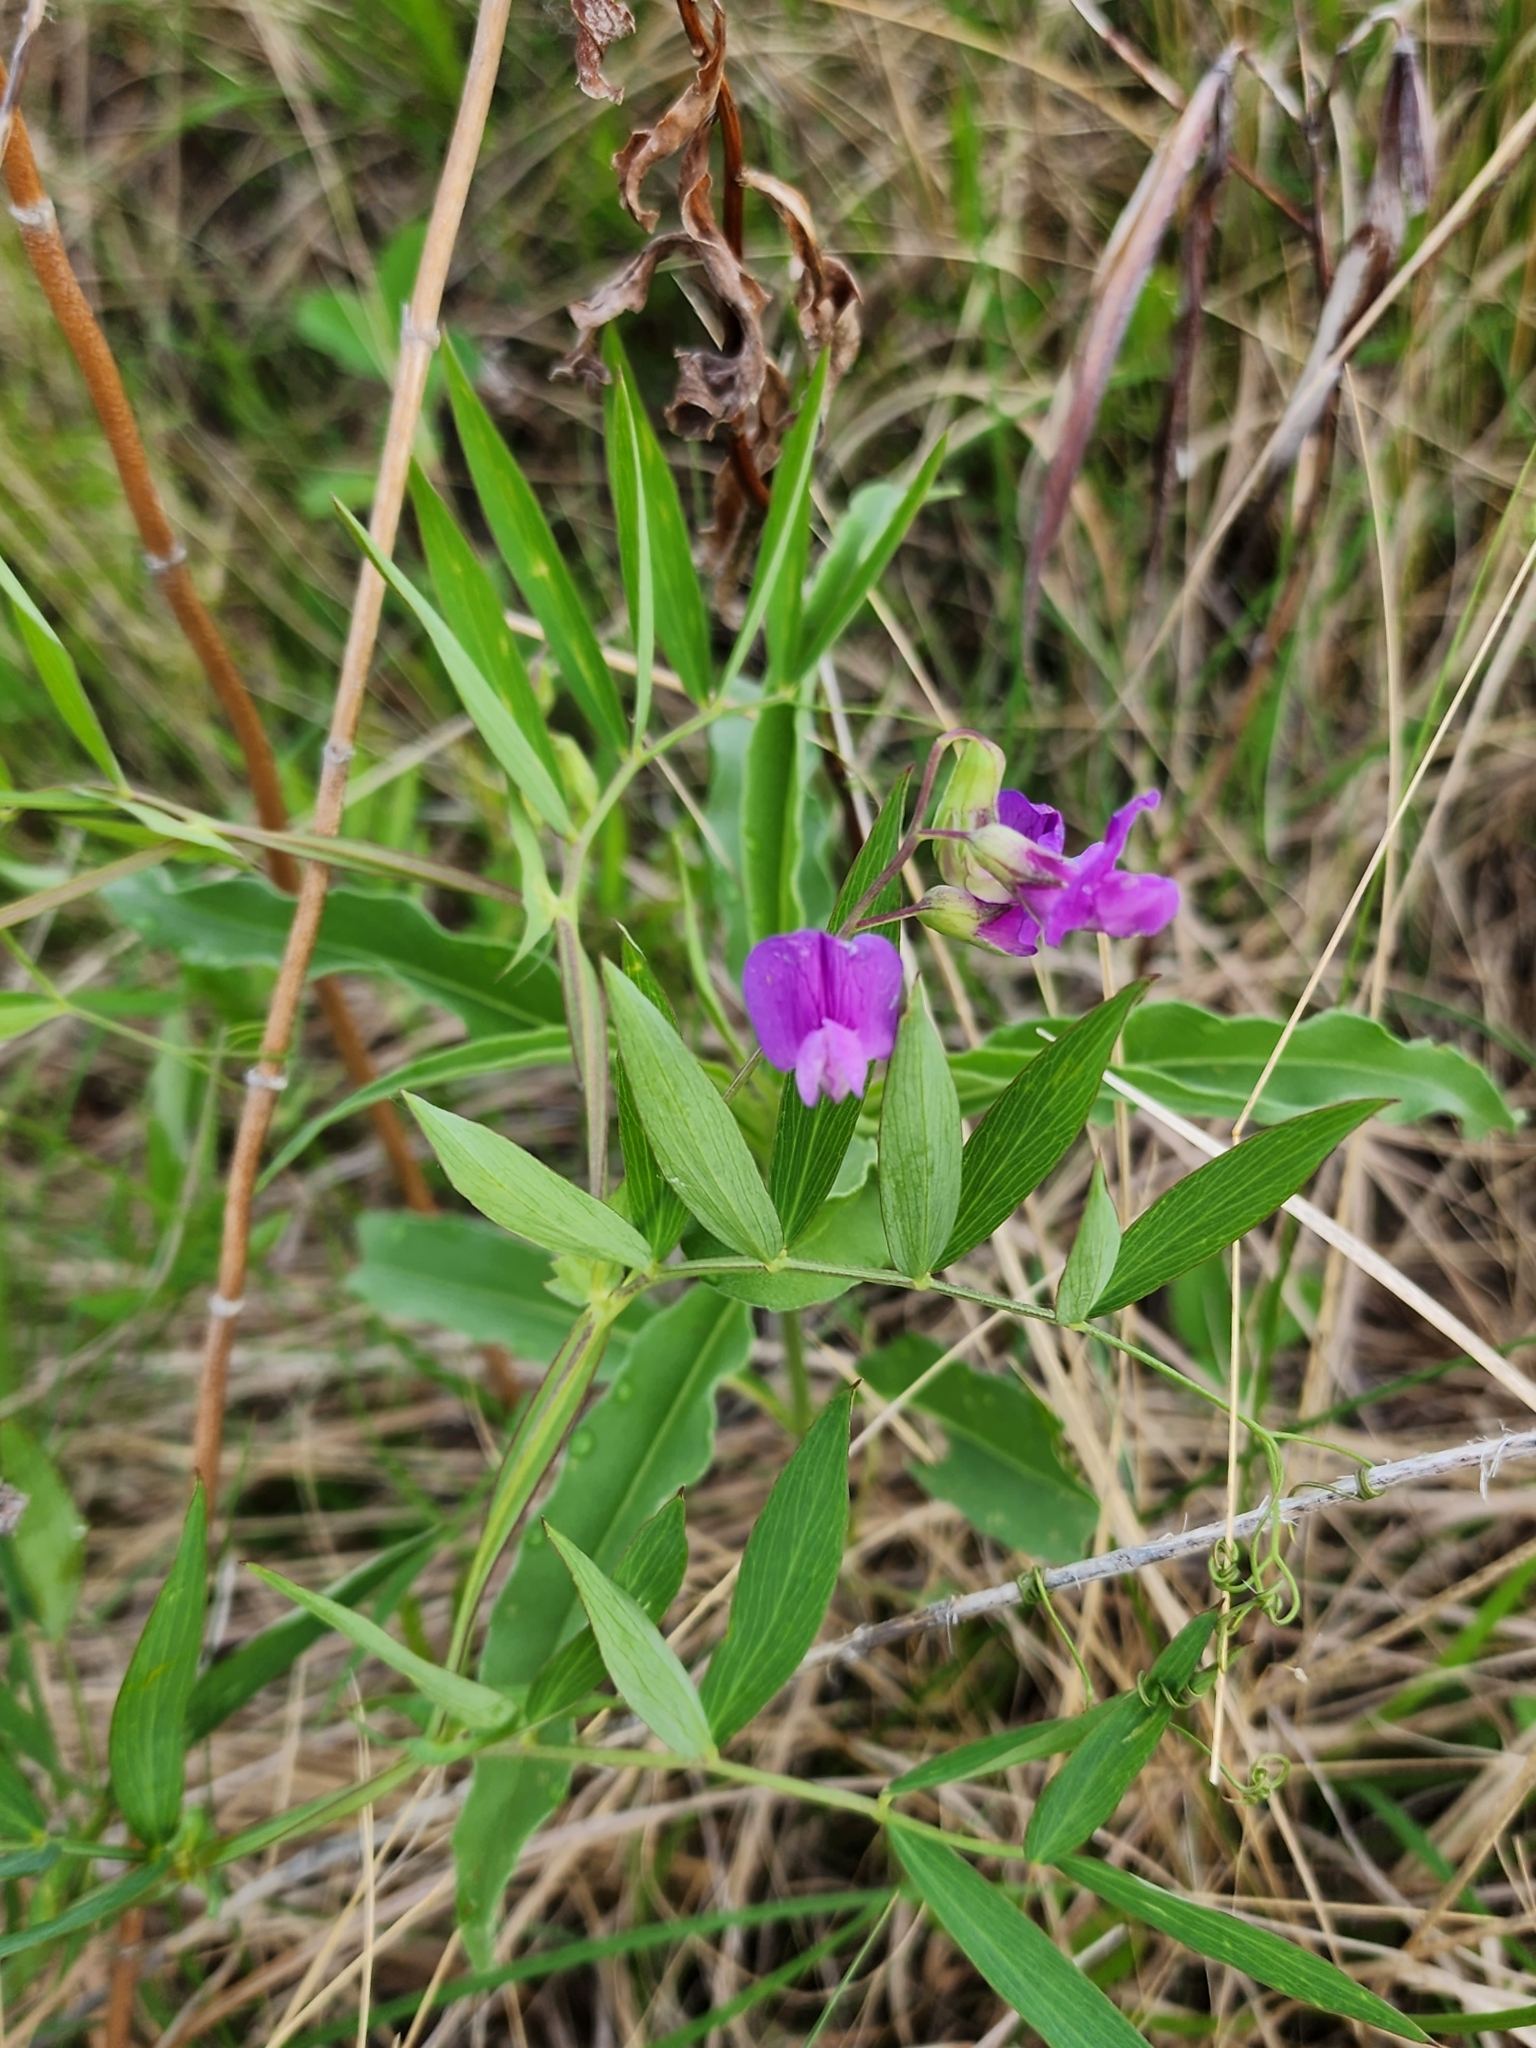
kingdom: Plantae
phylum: Tracheophyta
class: Magnoliopsida
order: Fabales
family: Fabaceae
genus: Lathyrus
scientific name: Lathyrus palustris
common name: Marsh pea
